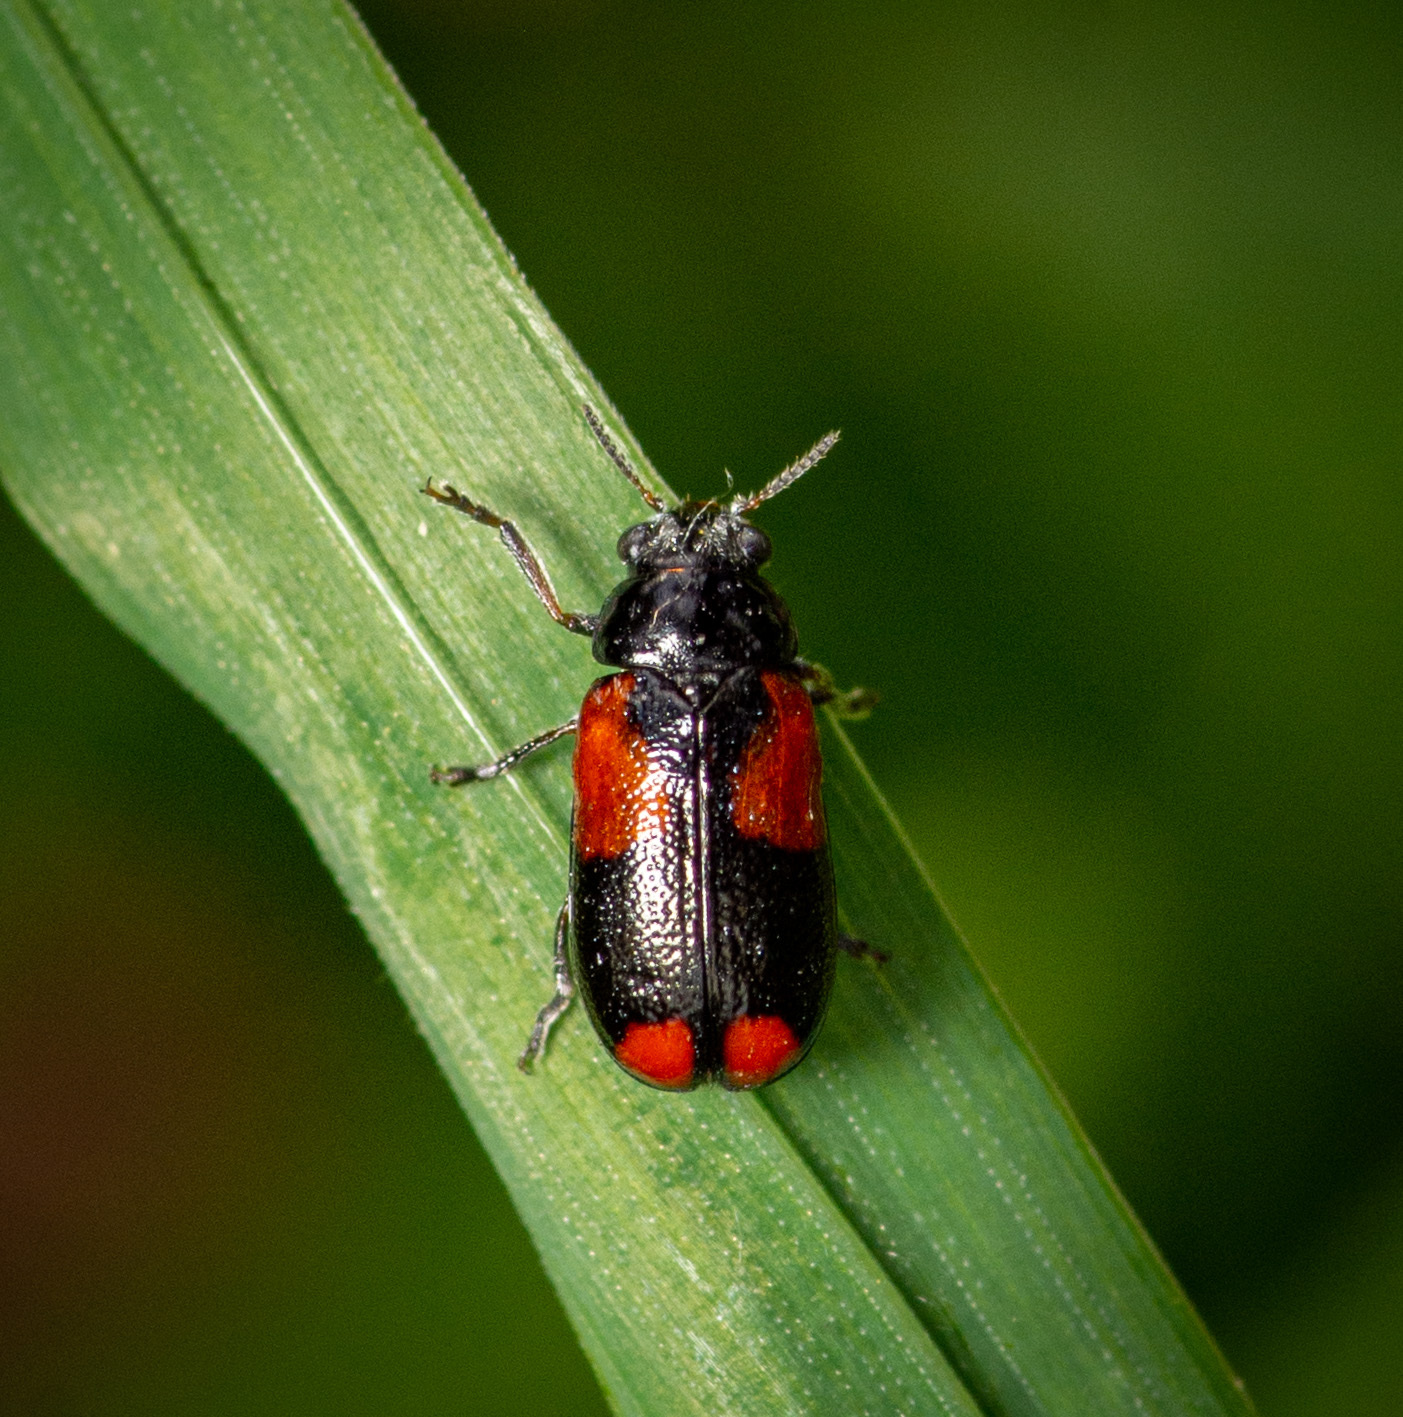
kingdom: Animalia
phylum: Arthropoda
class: Insecta
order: Coleoptera
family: Chrysomelidae
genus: Smaragdina
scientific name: Smaragdina militaris
